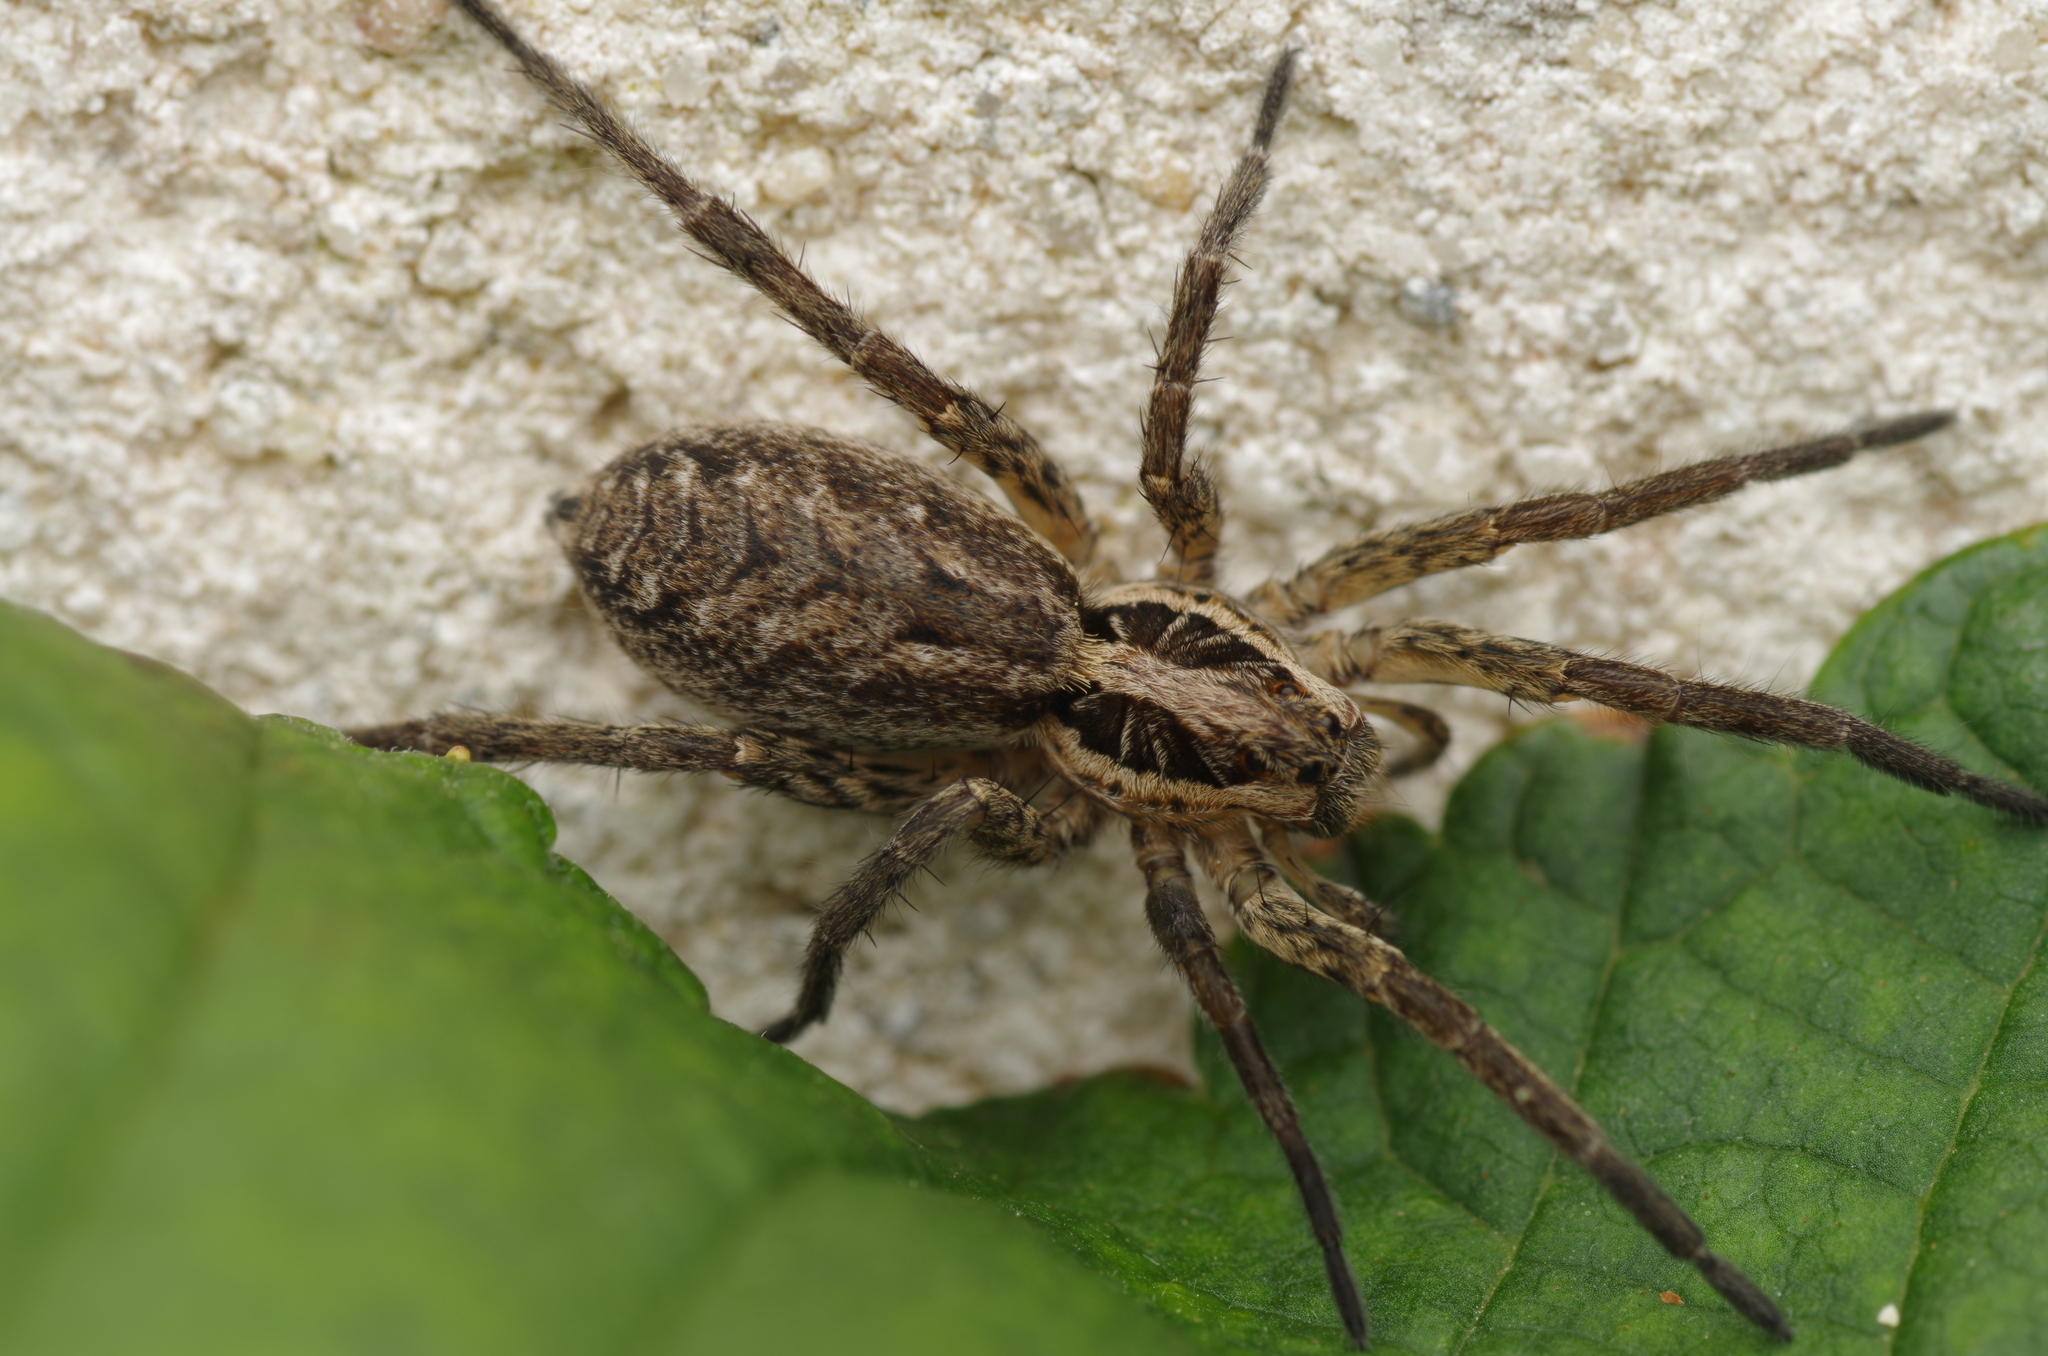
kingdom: Animalia
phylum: Arthropoda
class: Arachnida
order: Araneae
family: Lycosidae
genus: Hogna
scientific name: Hogna radiata
